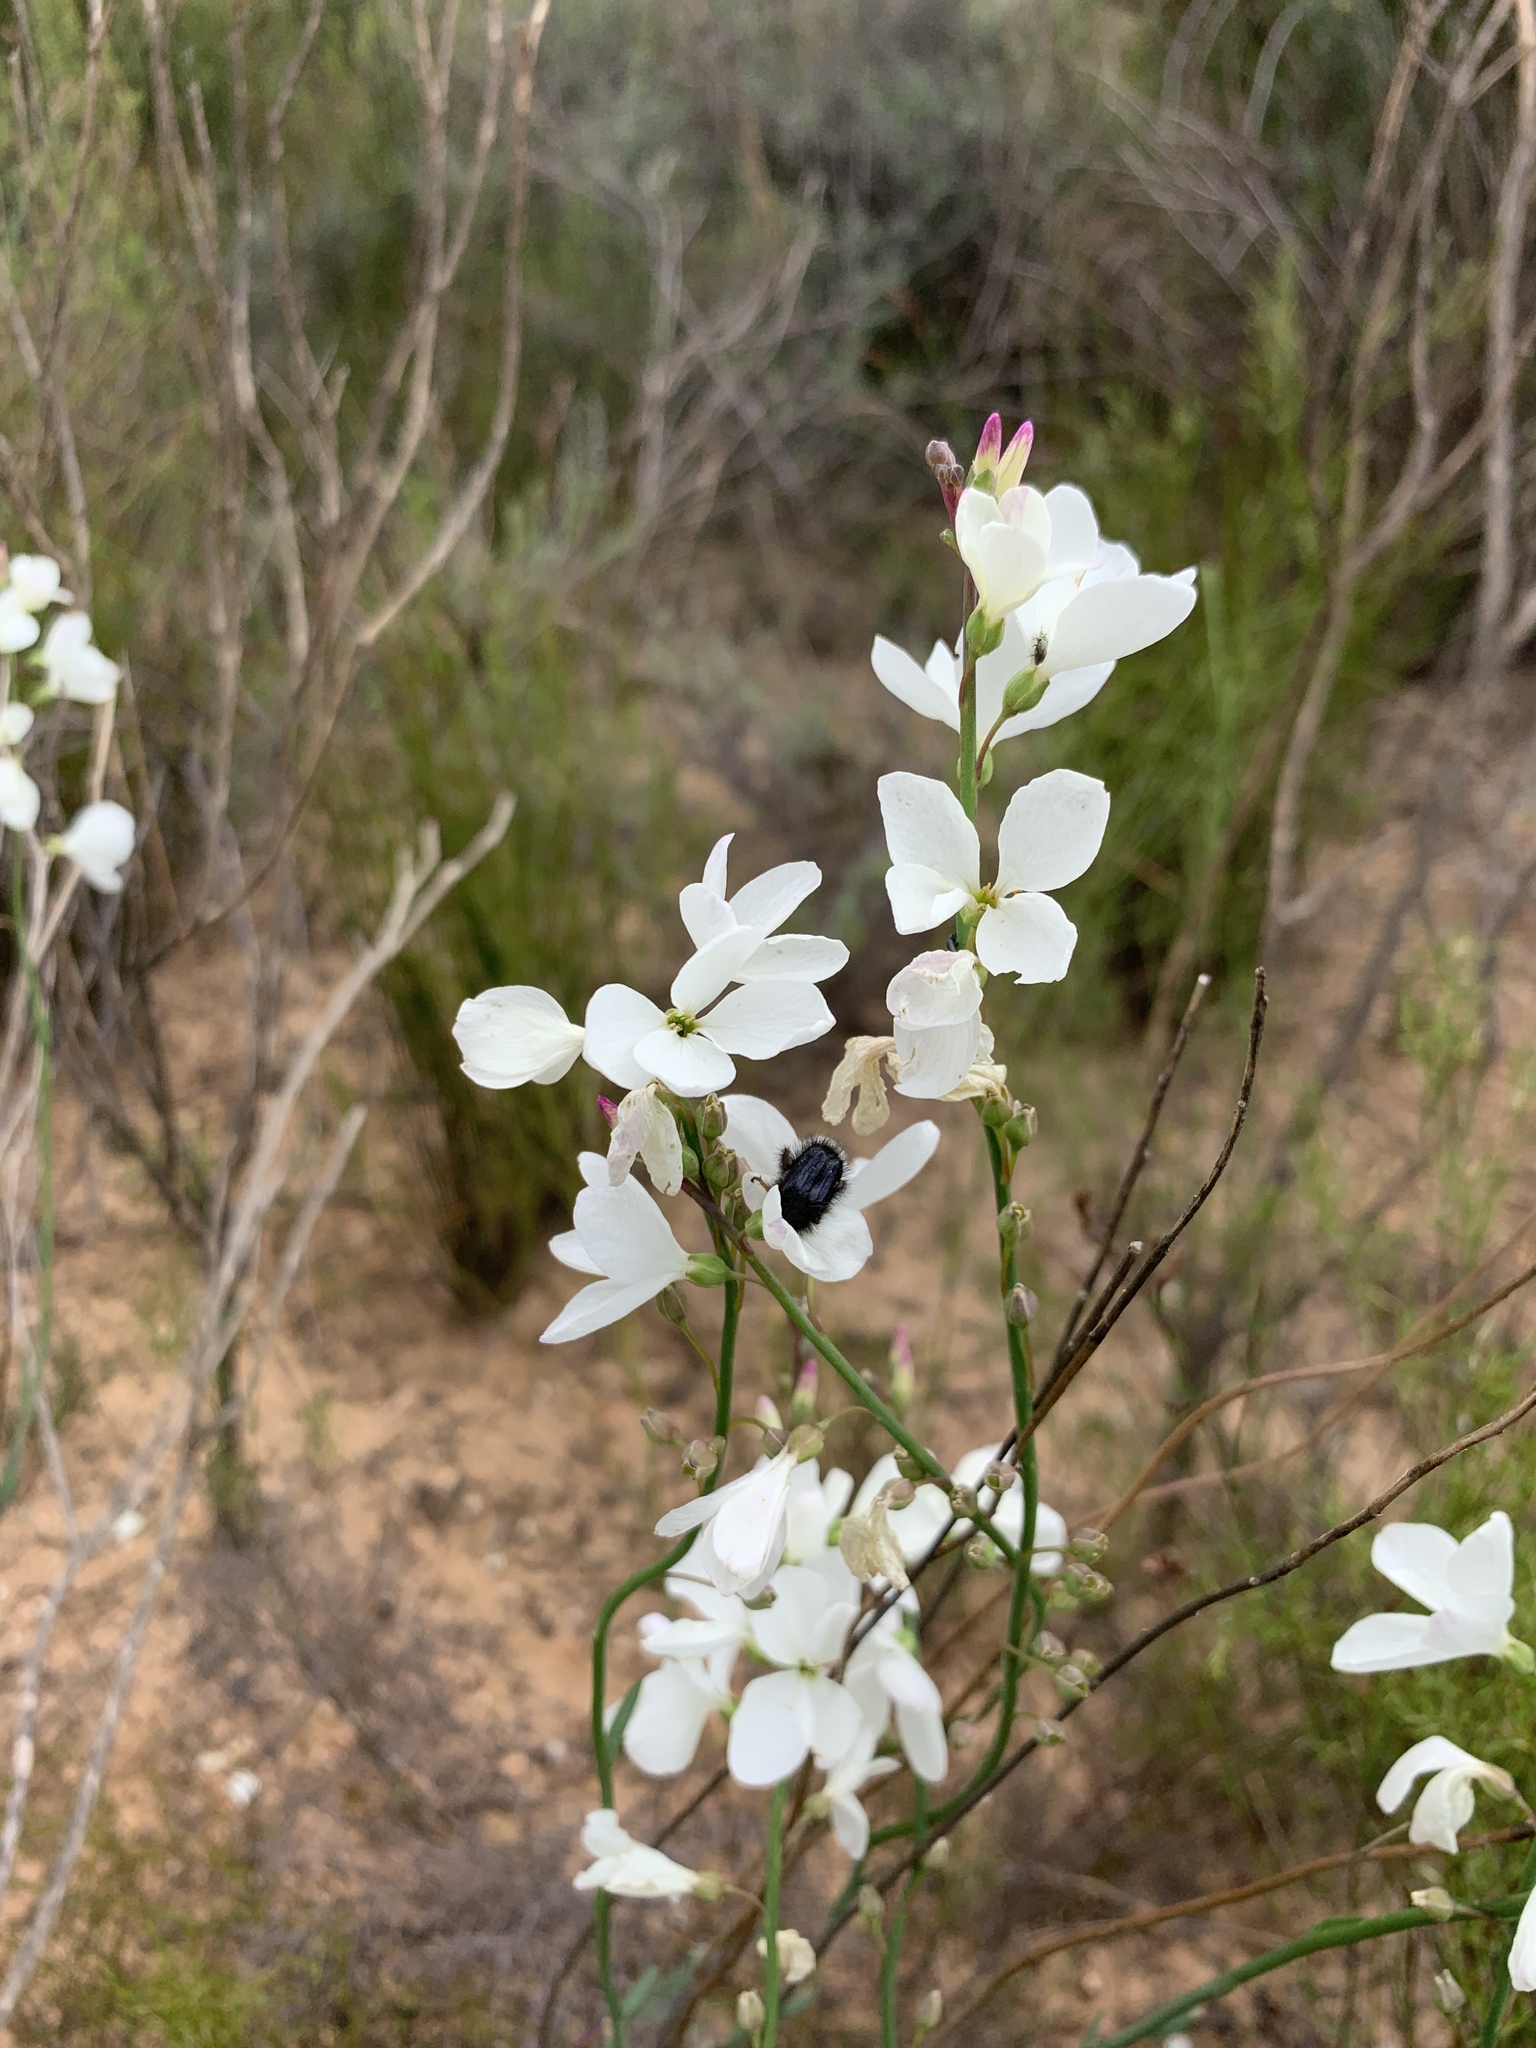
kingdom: Plantae
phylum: Tracheophyta
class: Magnoliopsida
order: Brassicales
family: Brassicaceae
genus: Heliophila
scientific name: Heliophila juncea
